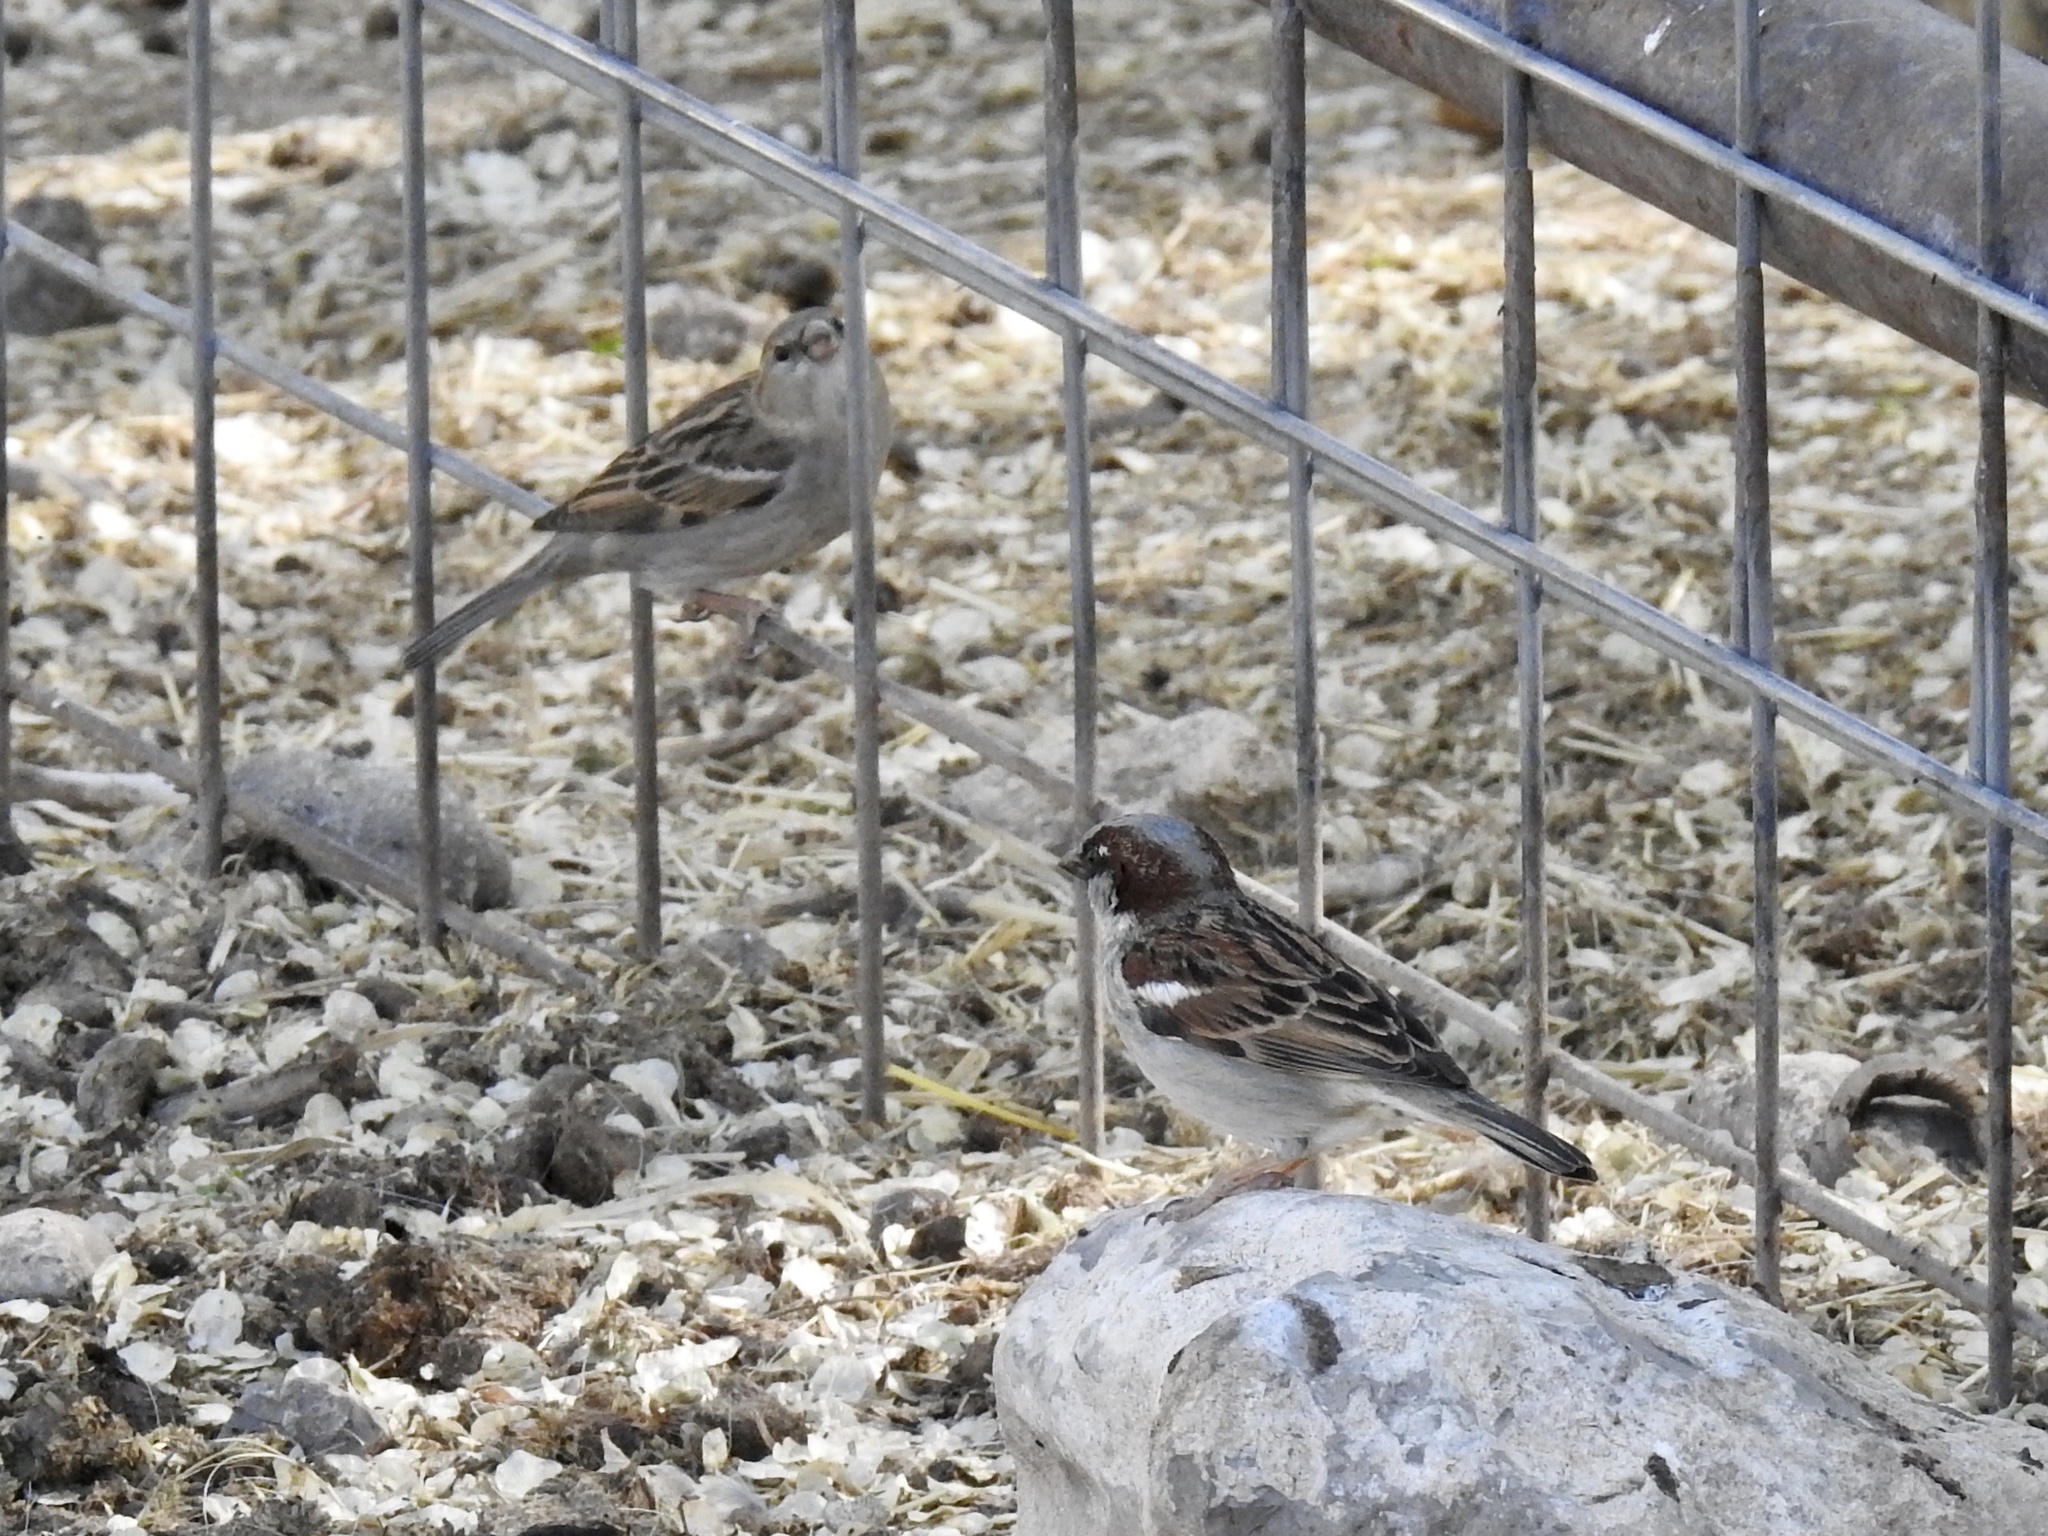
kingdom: Animalia
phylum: Chordata
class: Aves
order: Passeriformes
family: Passeridae
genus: Passer
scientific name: Passer domesticus
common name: House sparrow
